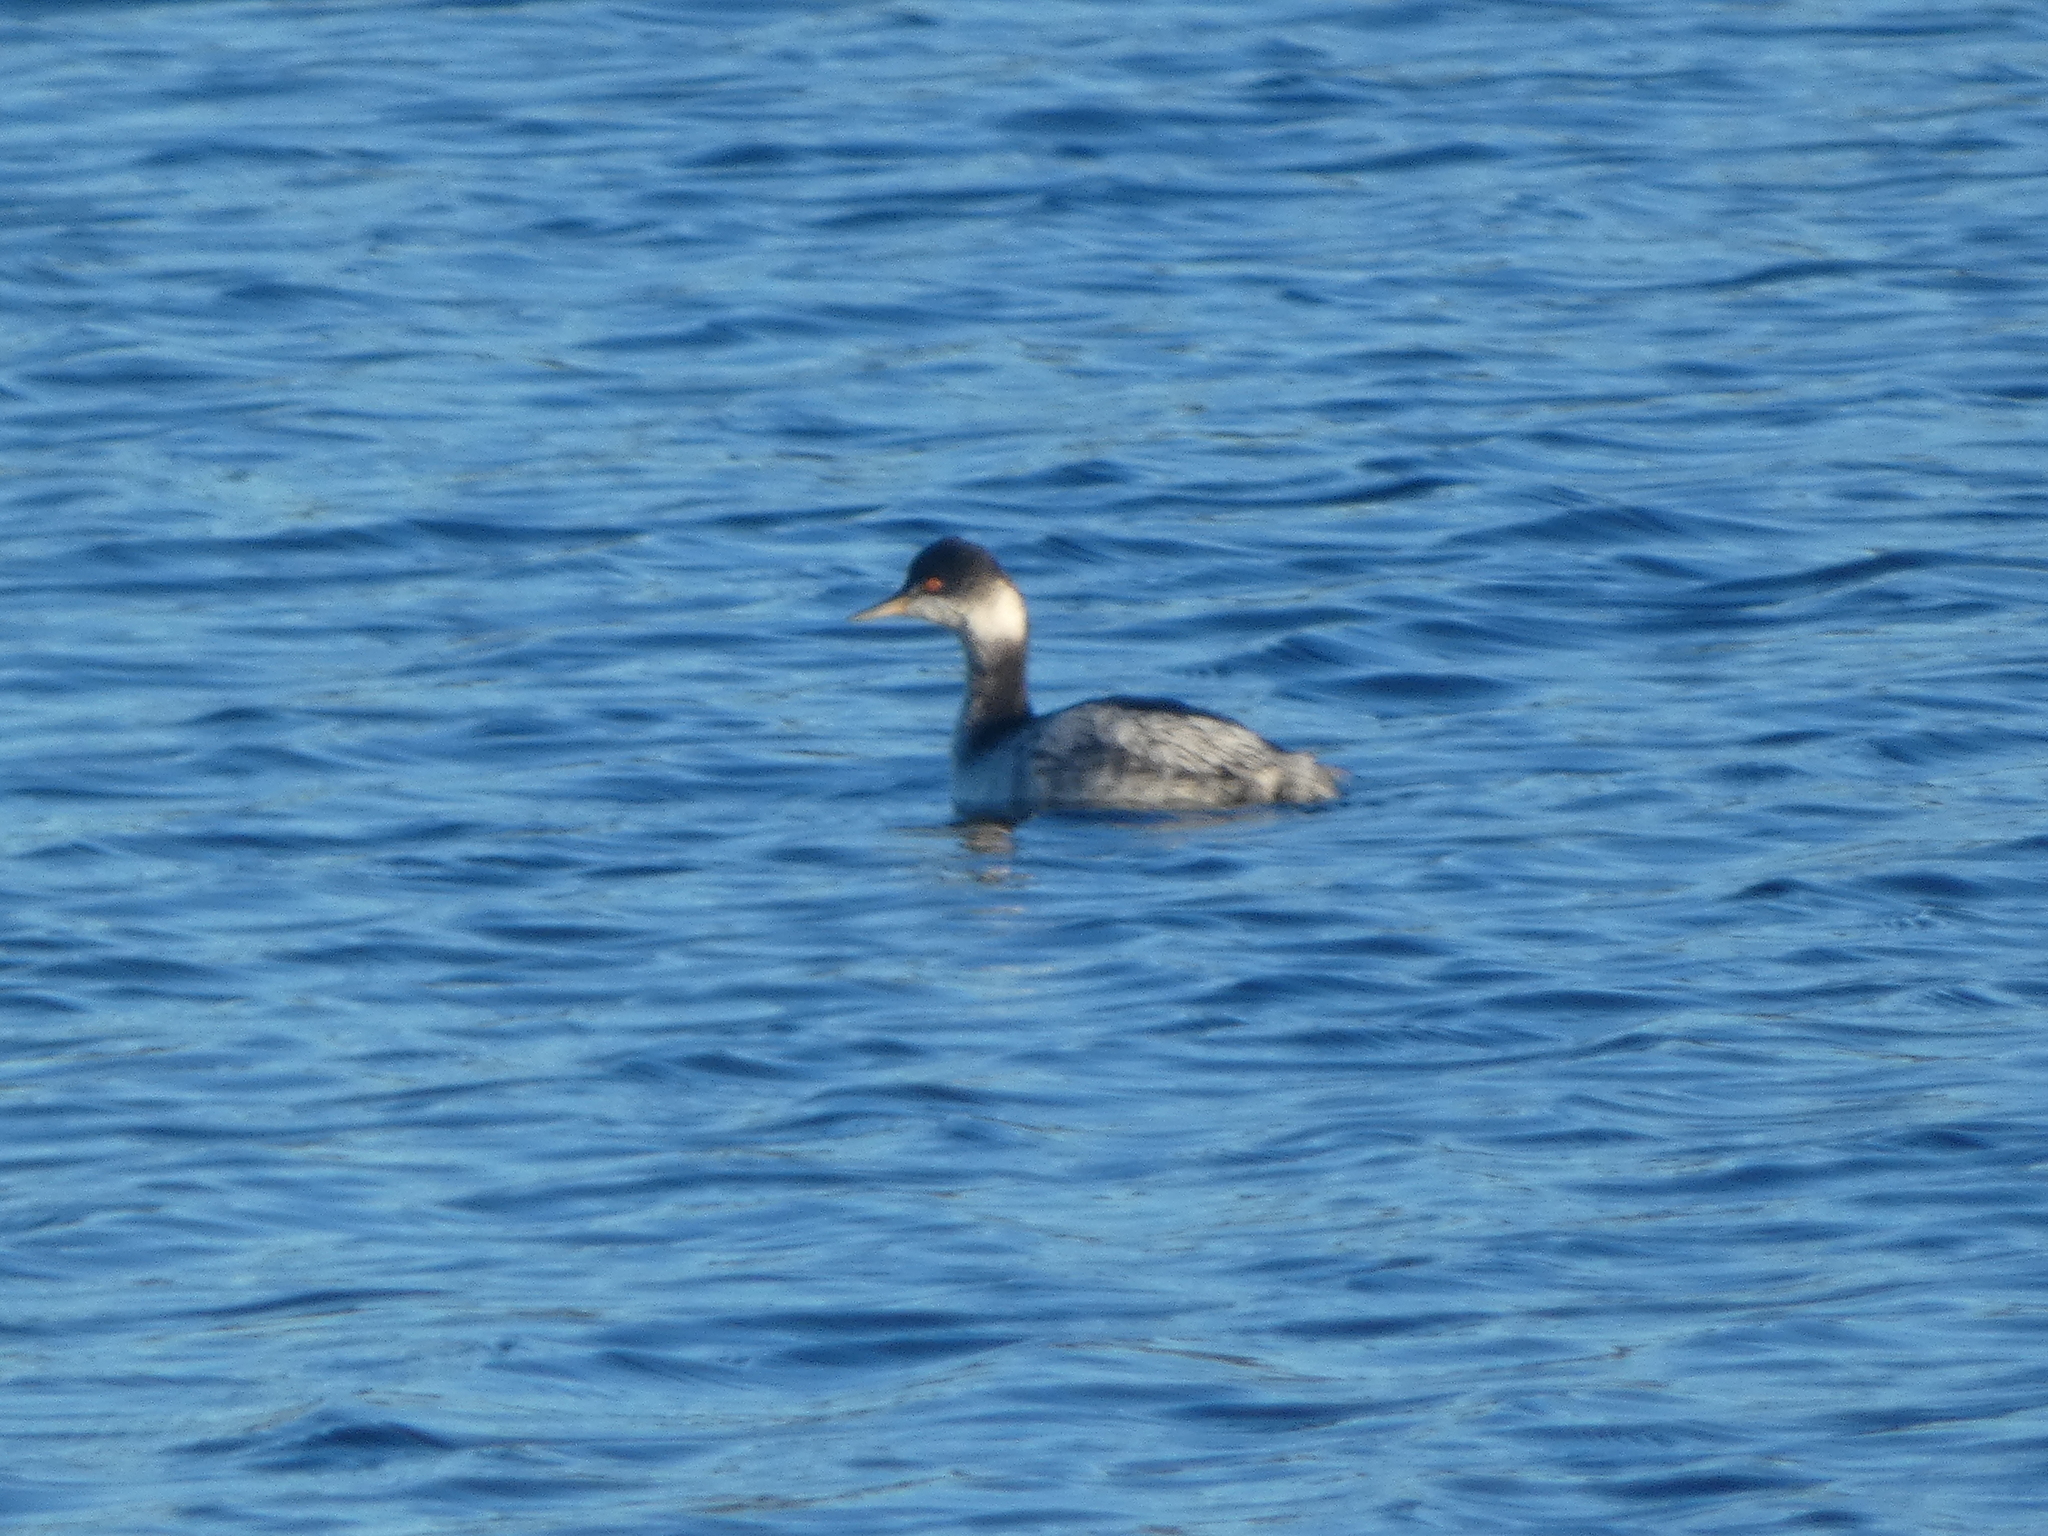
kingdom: Animalia
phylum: Chordata
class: Aves
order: Podicipediformes
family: Podicipedidae
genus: Podiceps
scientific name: Podiceps nigricollis
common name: Black-necked grebe
